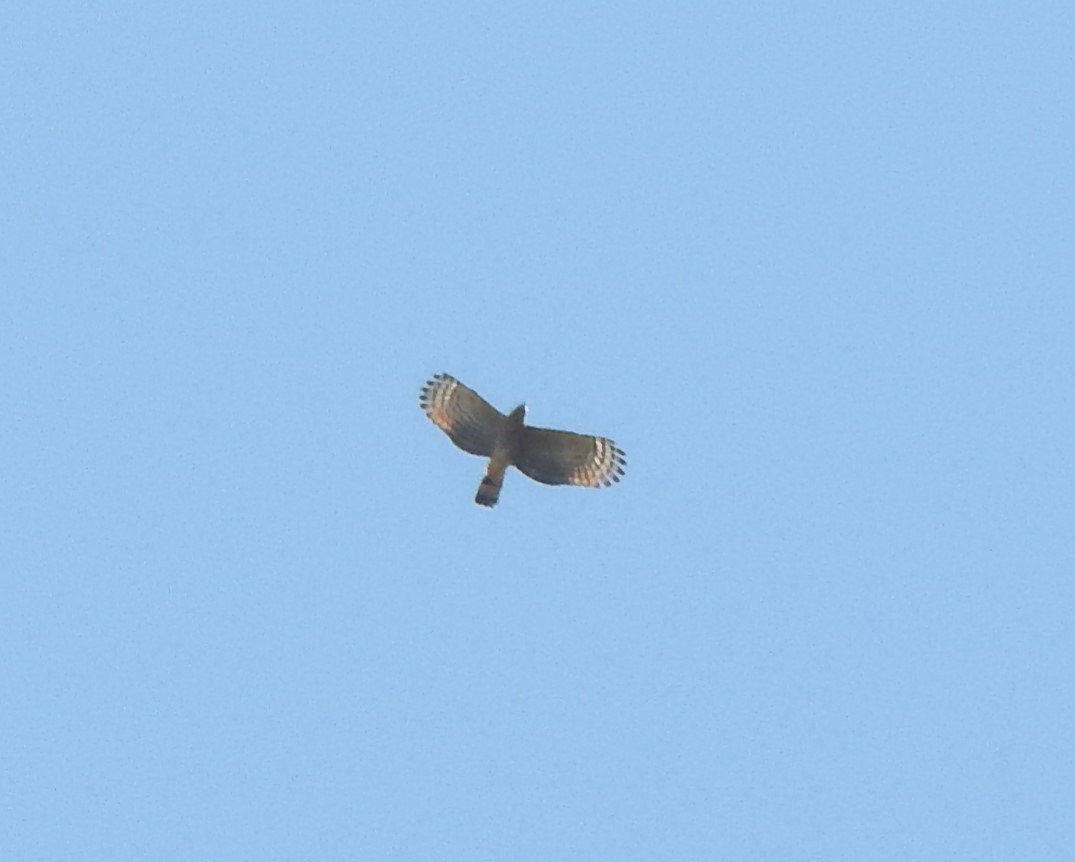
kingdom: Animalia
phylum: Chordata
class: Aves
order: Accipitriformes
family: Accipitridae
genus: Chondrohierax
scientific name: Chondrohierax uncinatus
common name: Hook-billed kite
